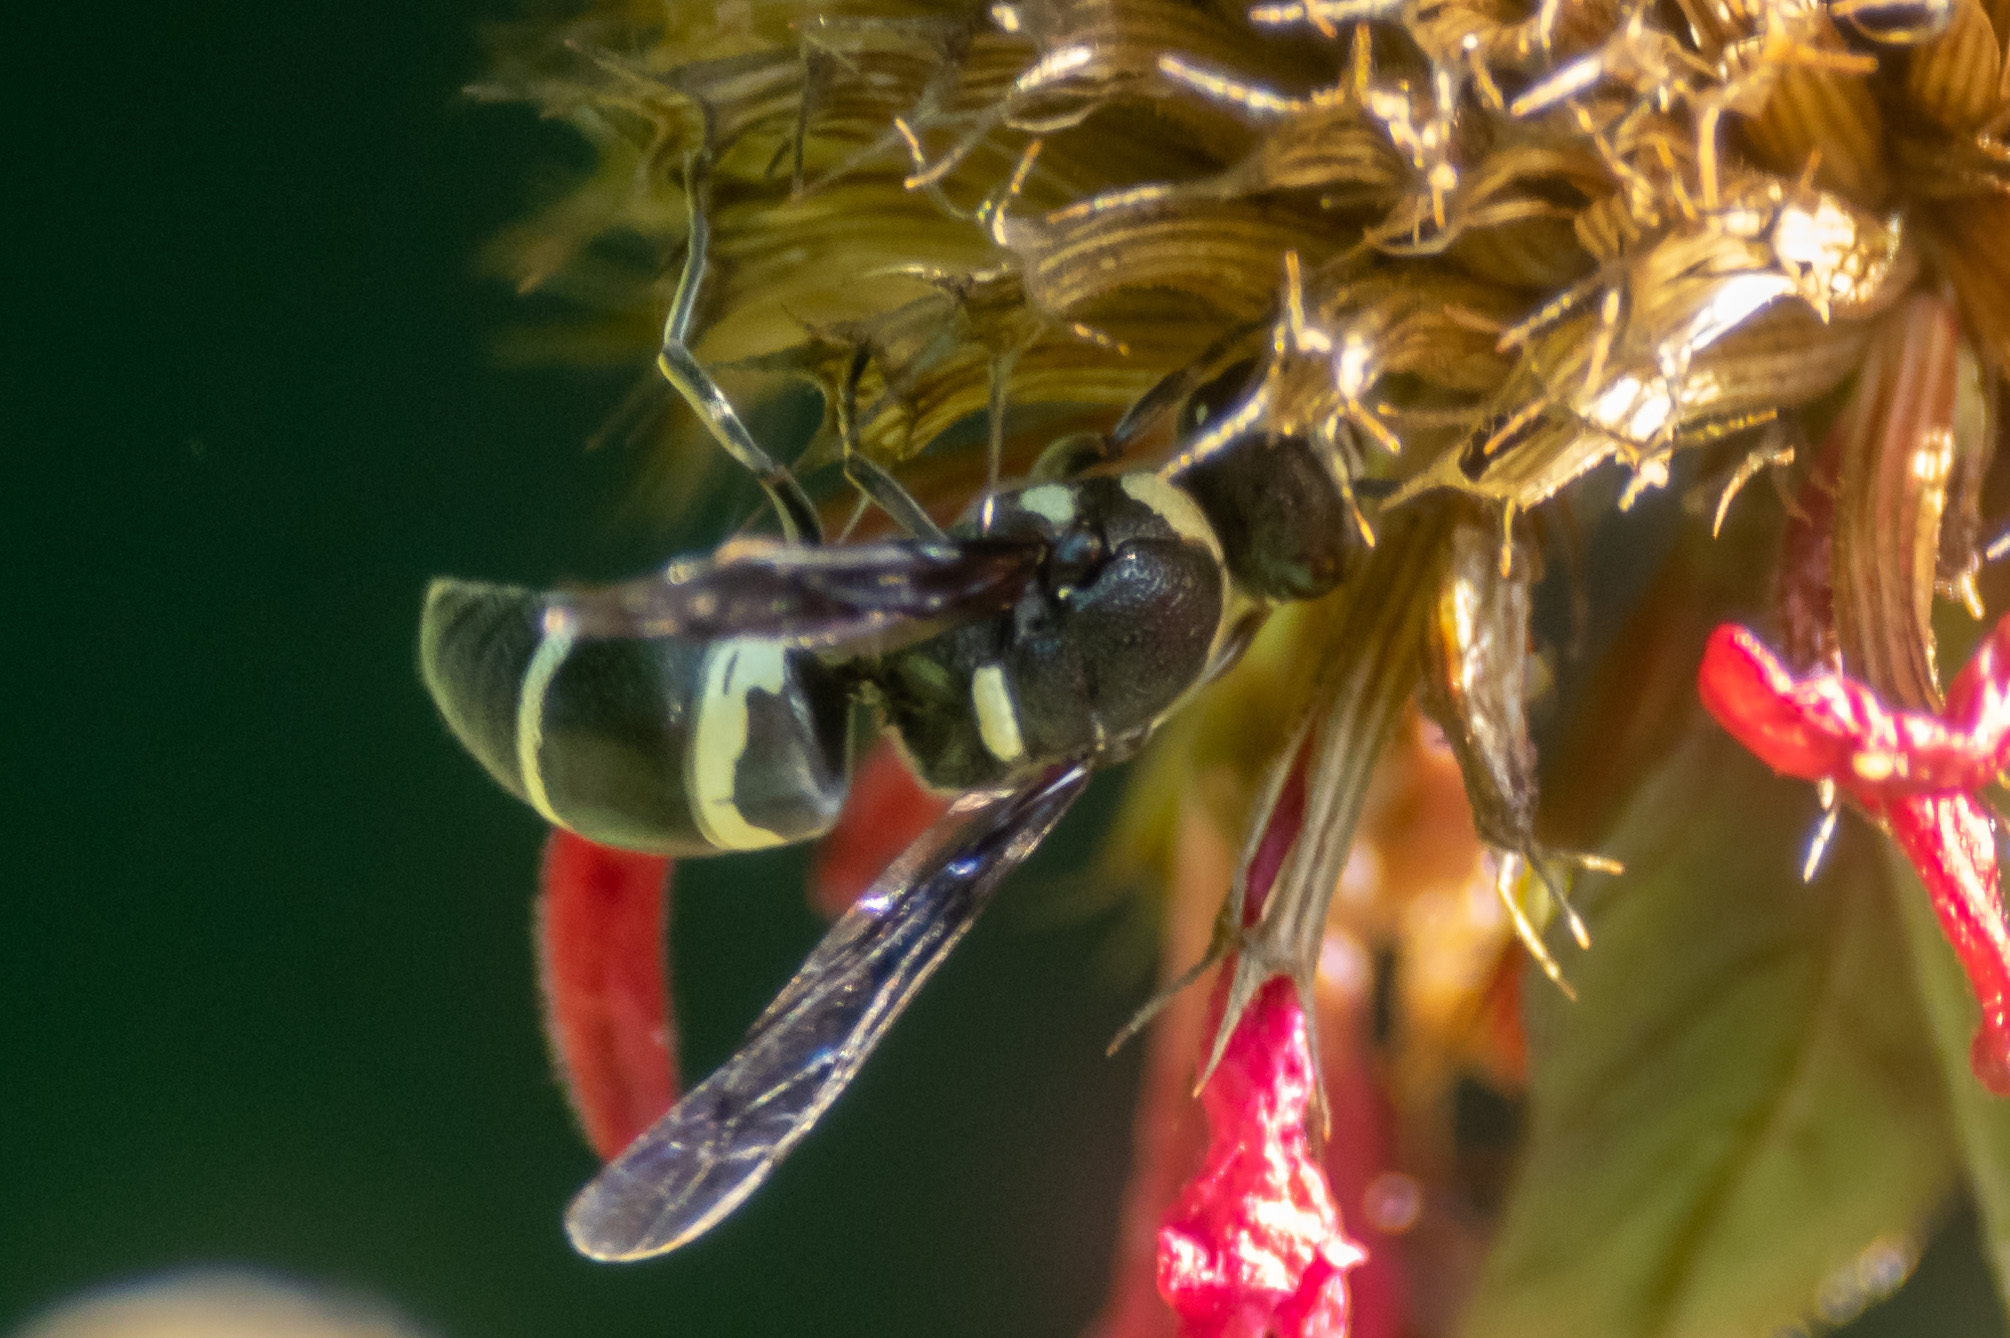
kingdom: Animalia
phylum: Arthropoda
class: Insecta
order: Hymenoptera
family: Eumenidae
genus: Euodynerus
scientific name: Euodynerus megaera
